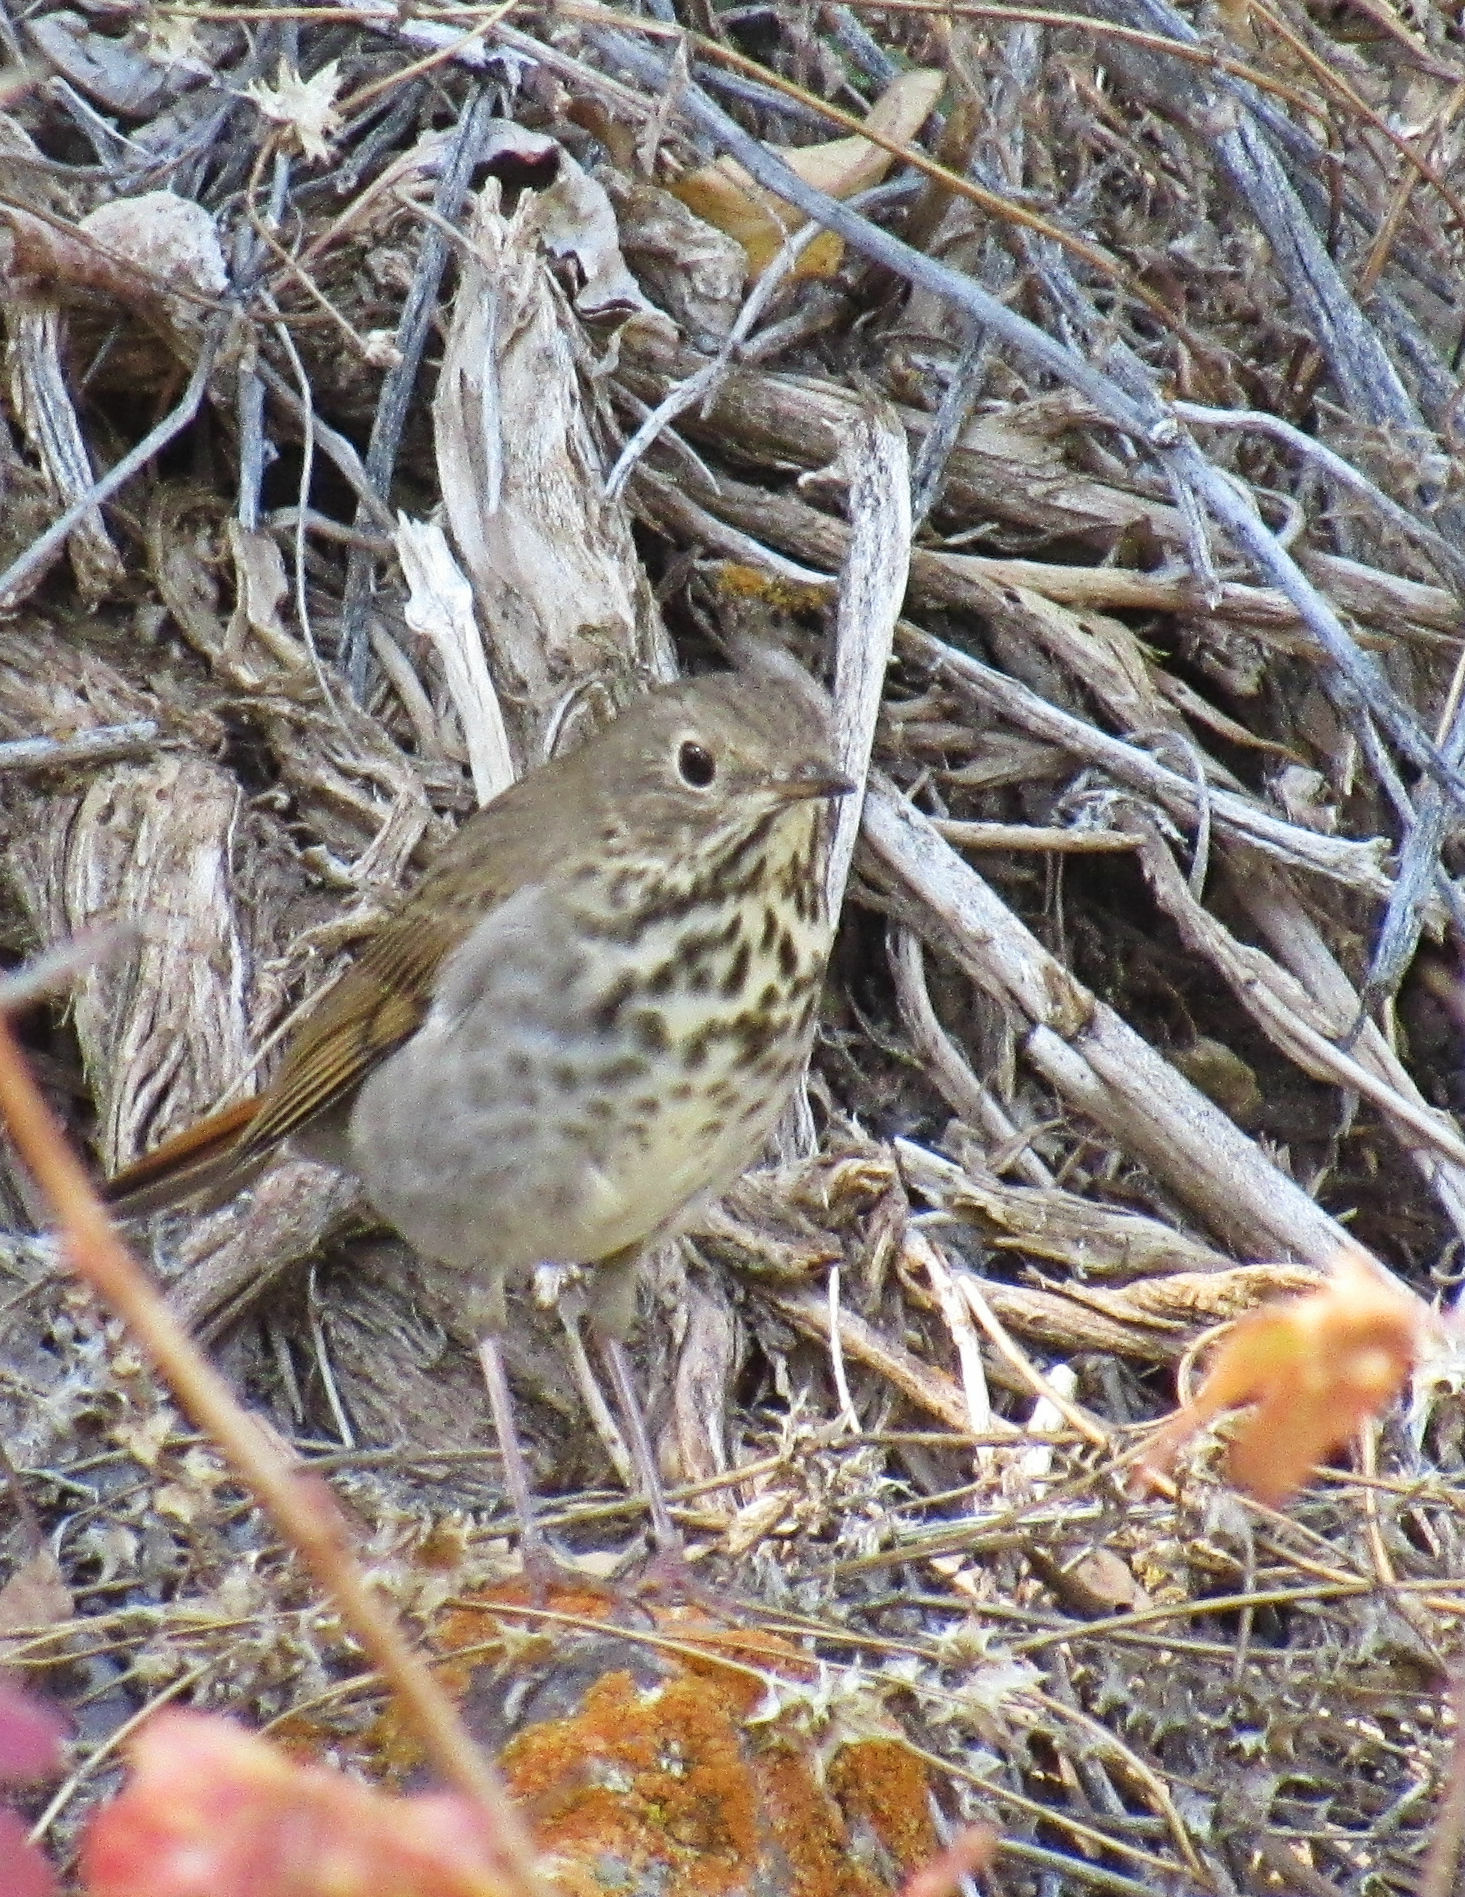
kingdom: Animalia
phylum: Chordata
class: Aves
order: Passeriformes
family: Turdidae
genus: Catharus
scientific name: Catharus guttatus
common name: Hermit thrush
